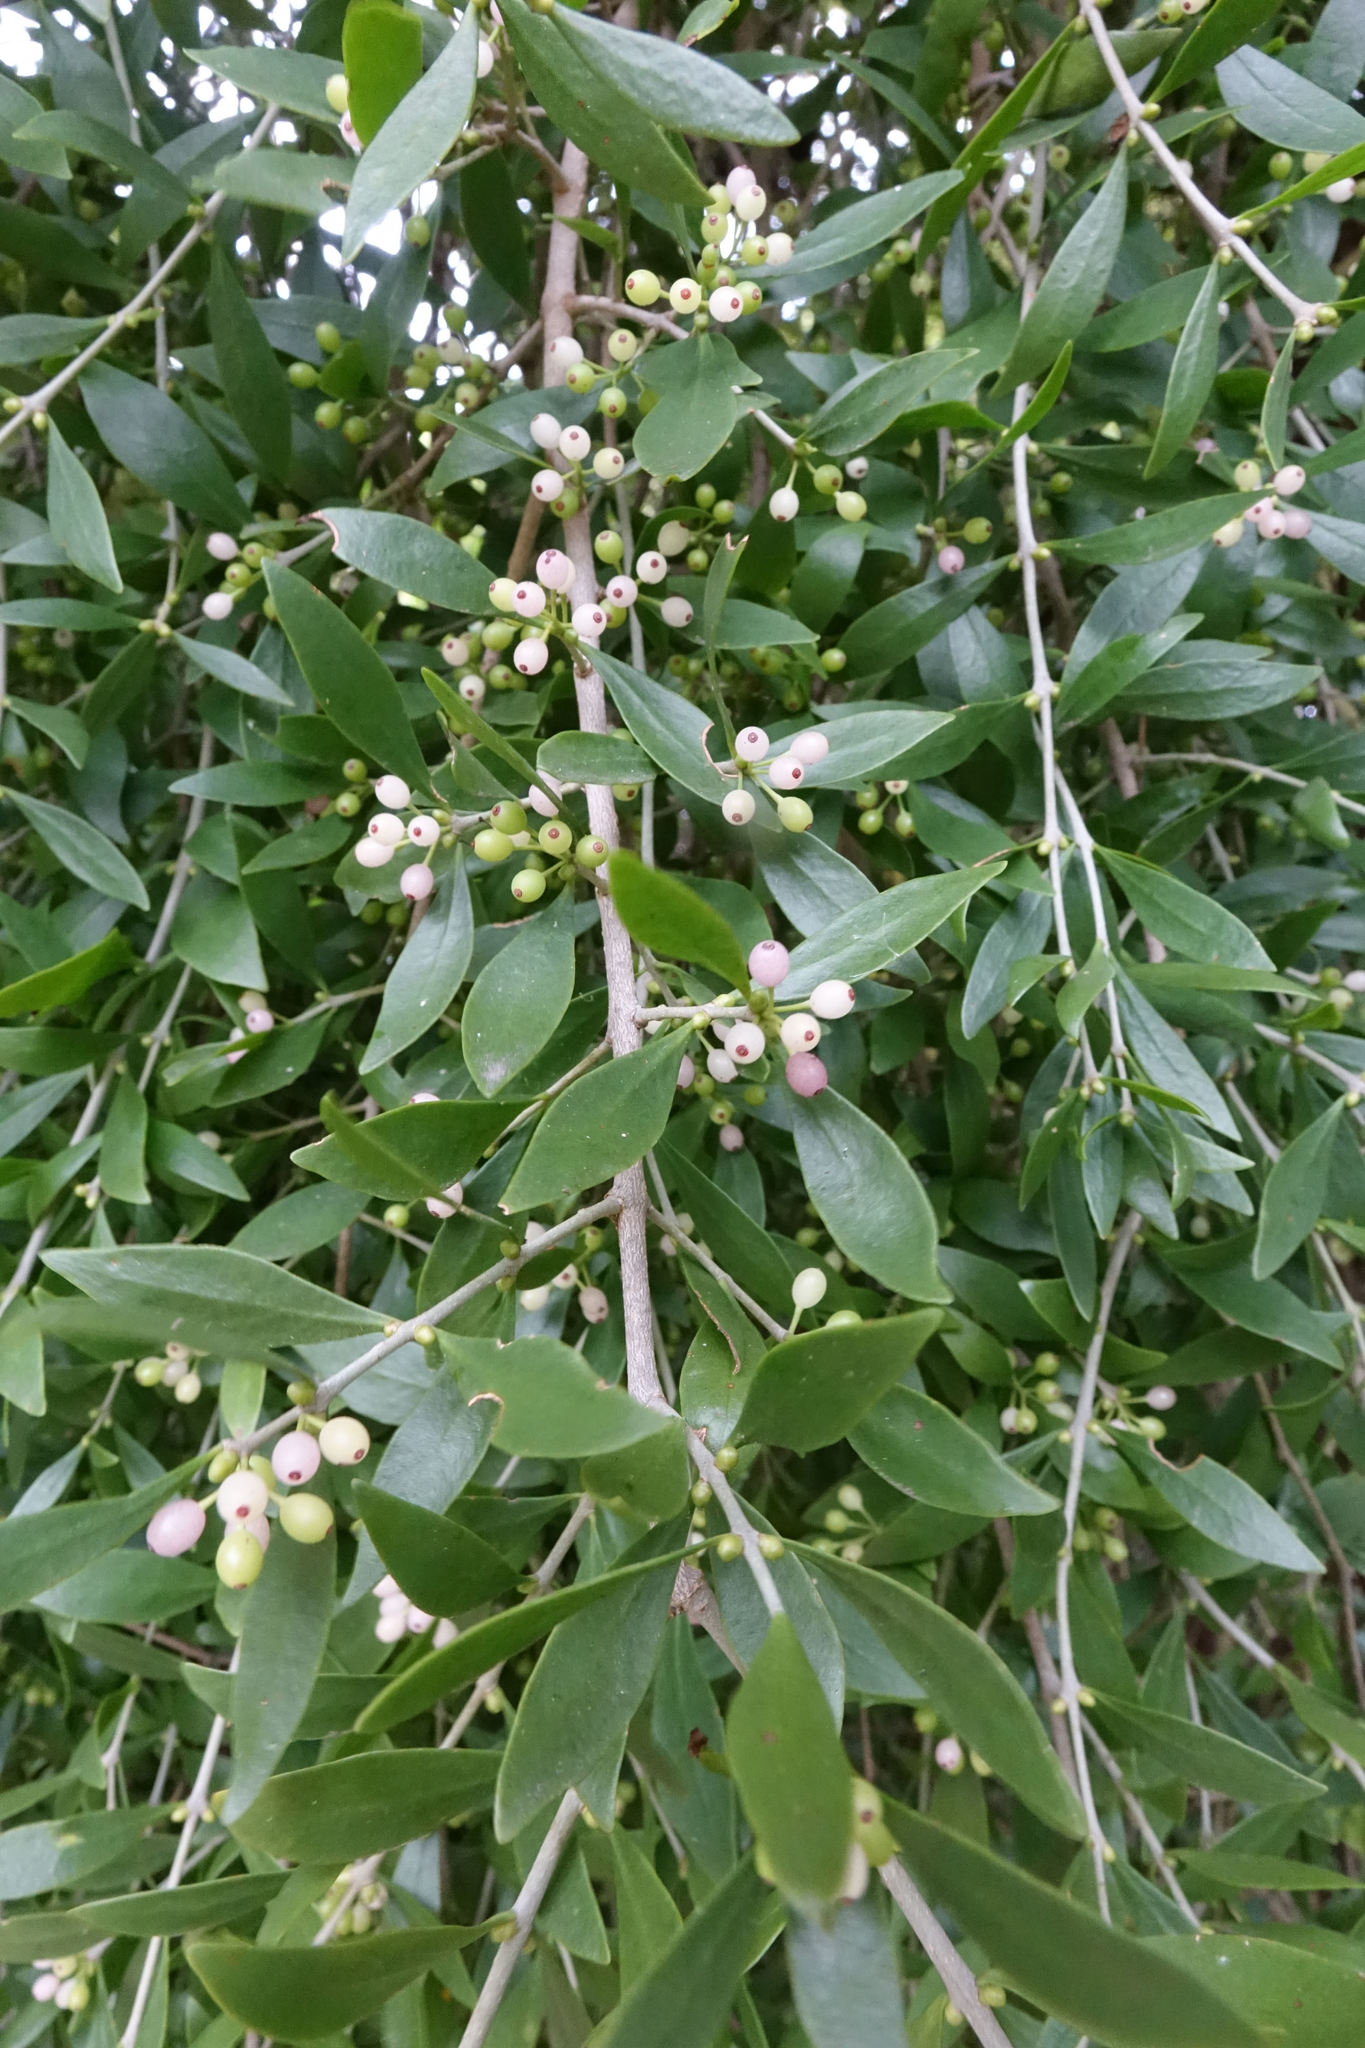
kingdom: Plantae
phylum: Tracheophyta
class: Magnoliopsida
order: Santalales
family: Loranthaceae
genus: Tupeia
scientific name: Tupeia antarctica
